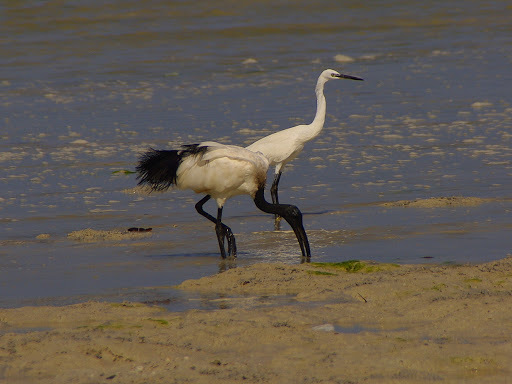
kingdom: Animalia
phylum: Chordata
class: Aves
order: Pelecaniformes
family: Ardeidae
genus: Egretta
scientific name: Egretta garzetta
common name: Little egret
